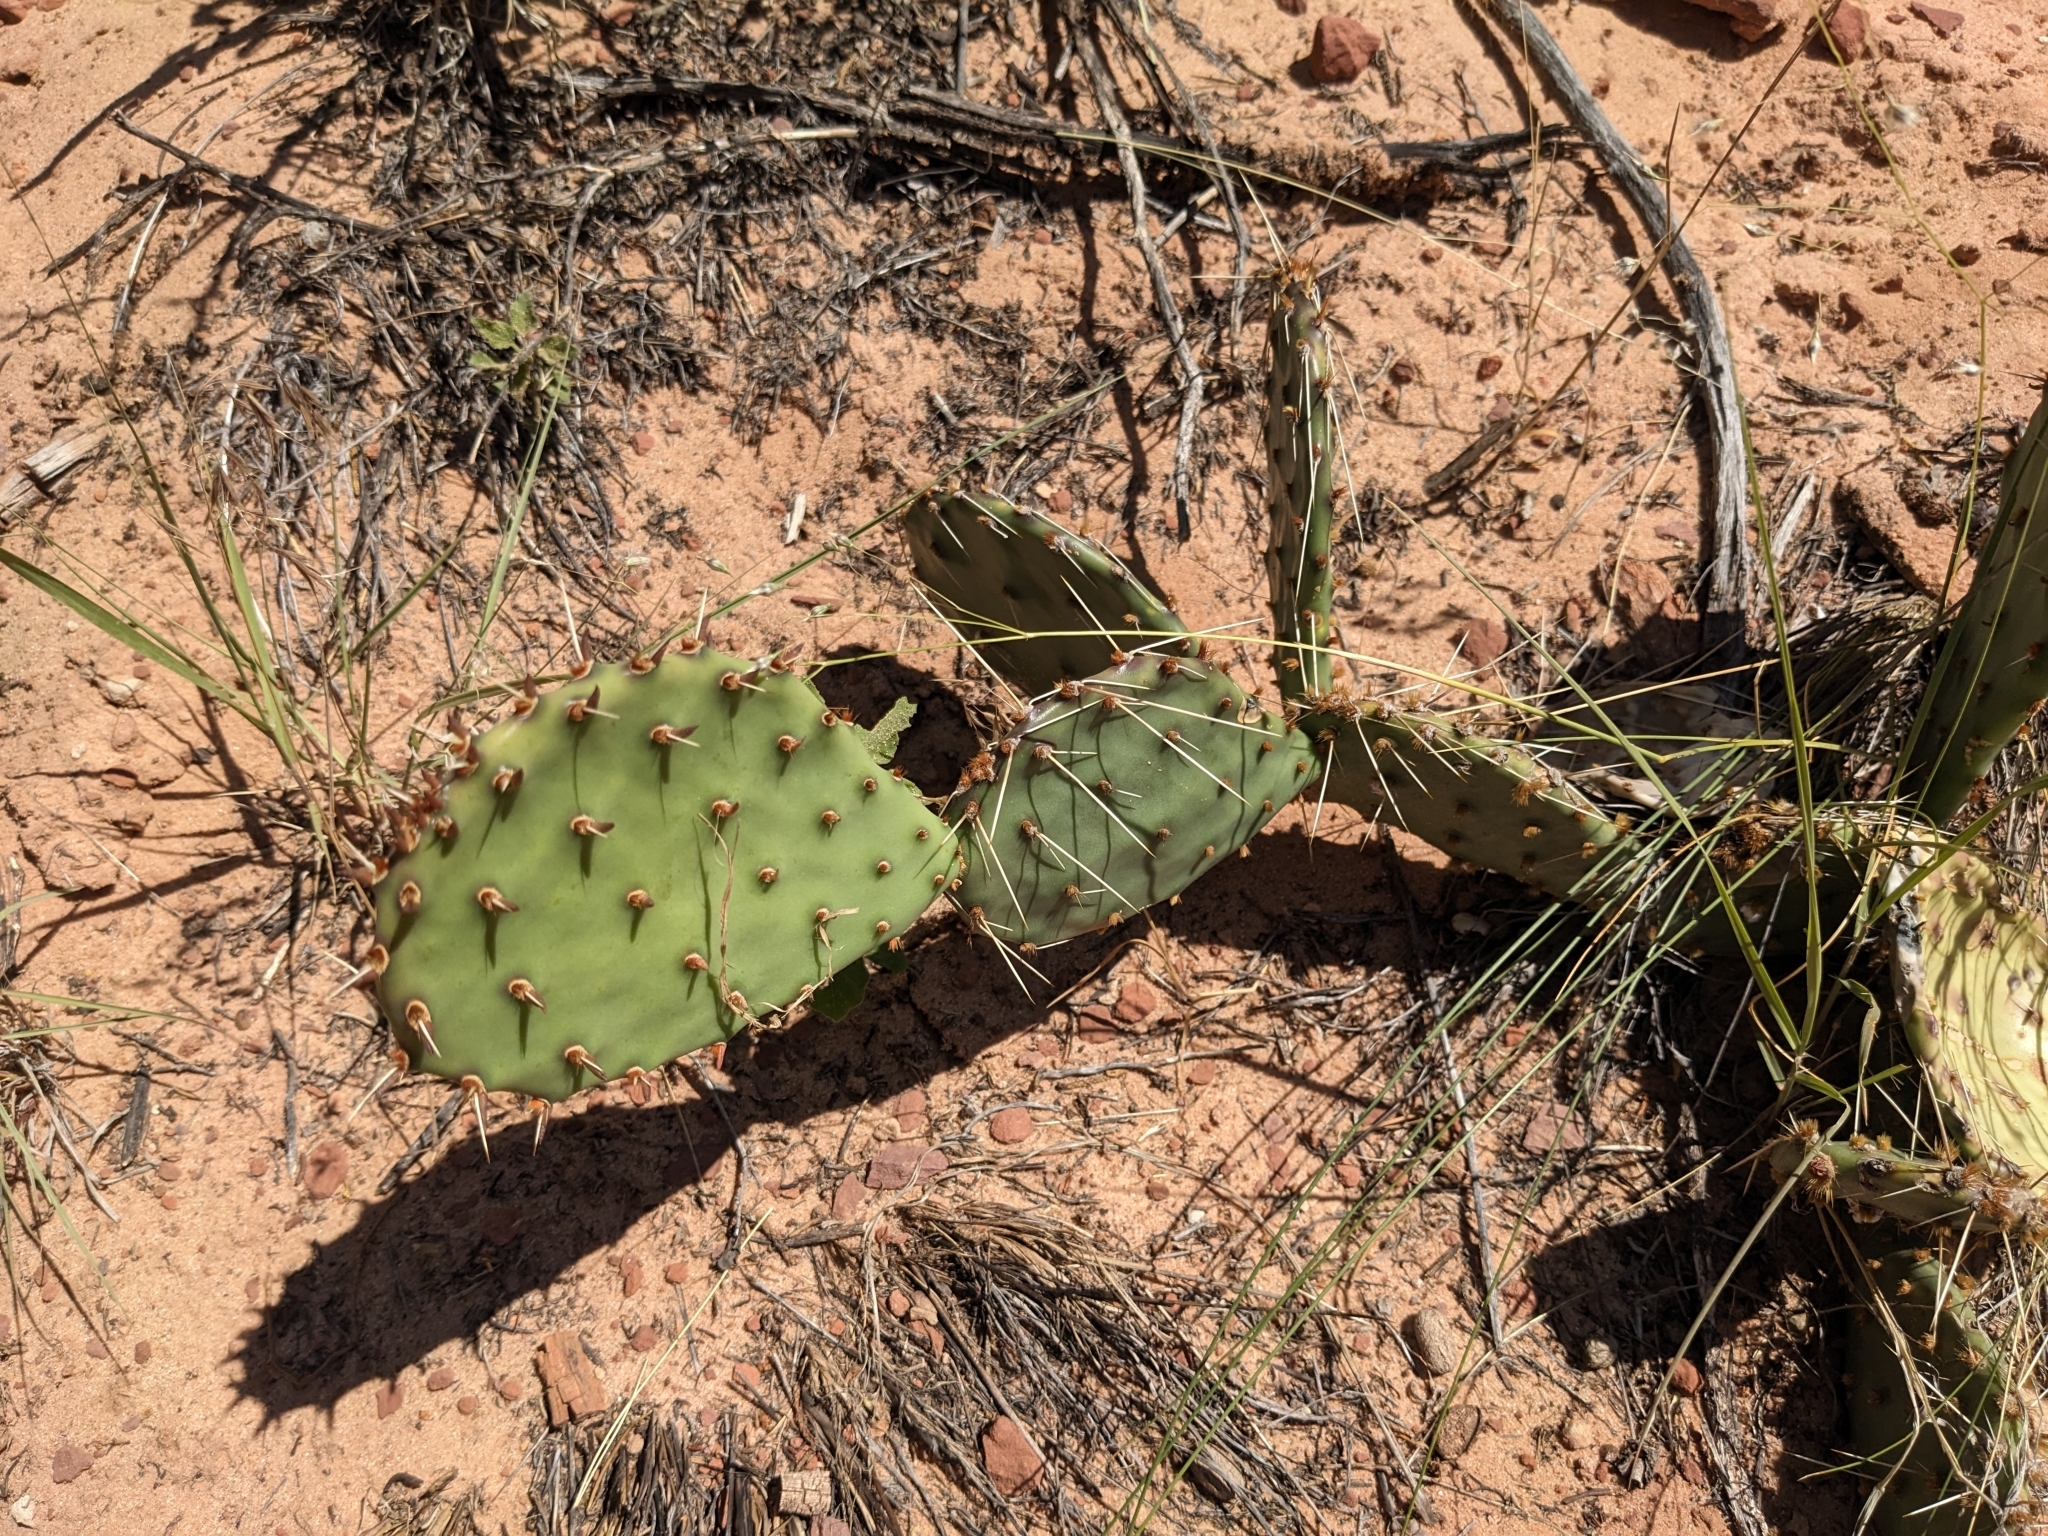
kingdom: Plantae
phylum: Tracheophyta
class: Magnoliopsida
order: Caryophyllales
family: Cactaceae
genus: Opuntia
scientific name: Opuntia phaeacantha
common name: New mexico prickly-pear
